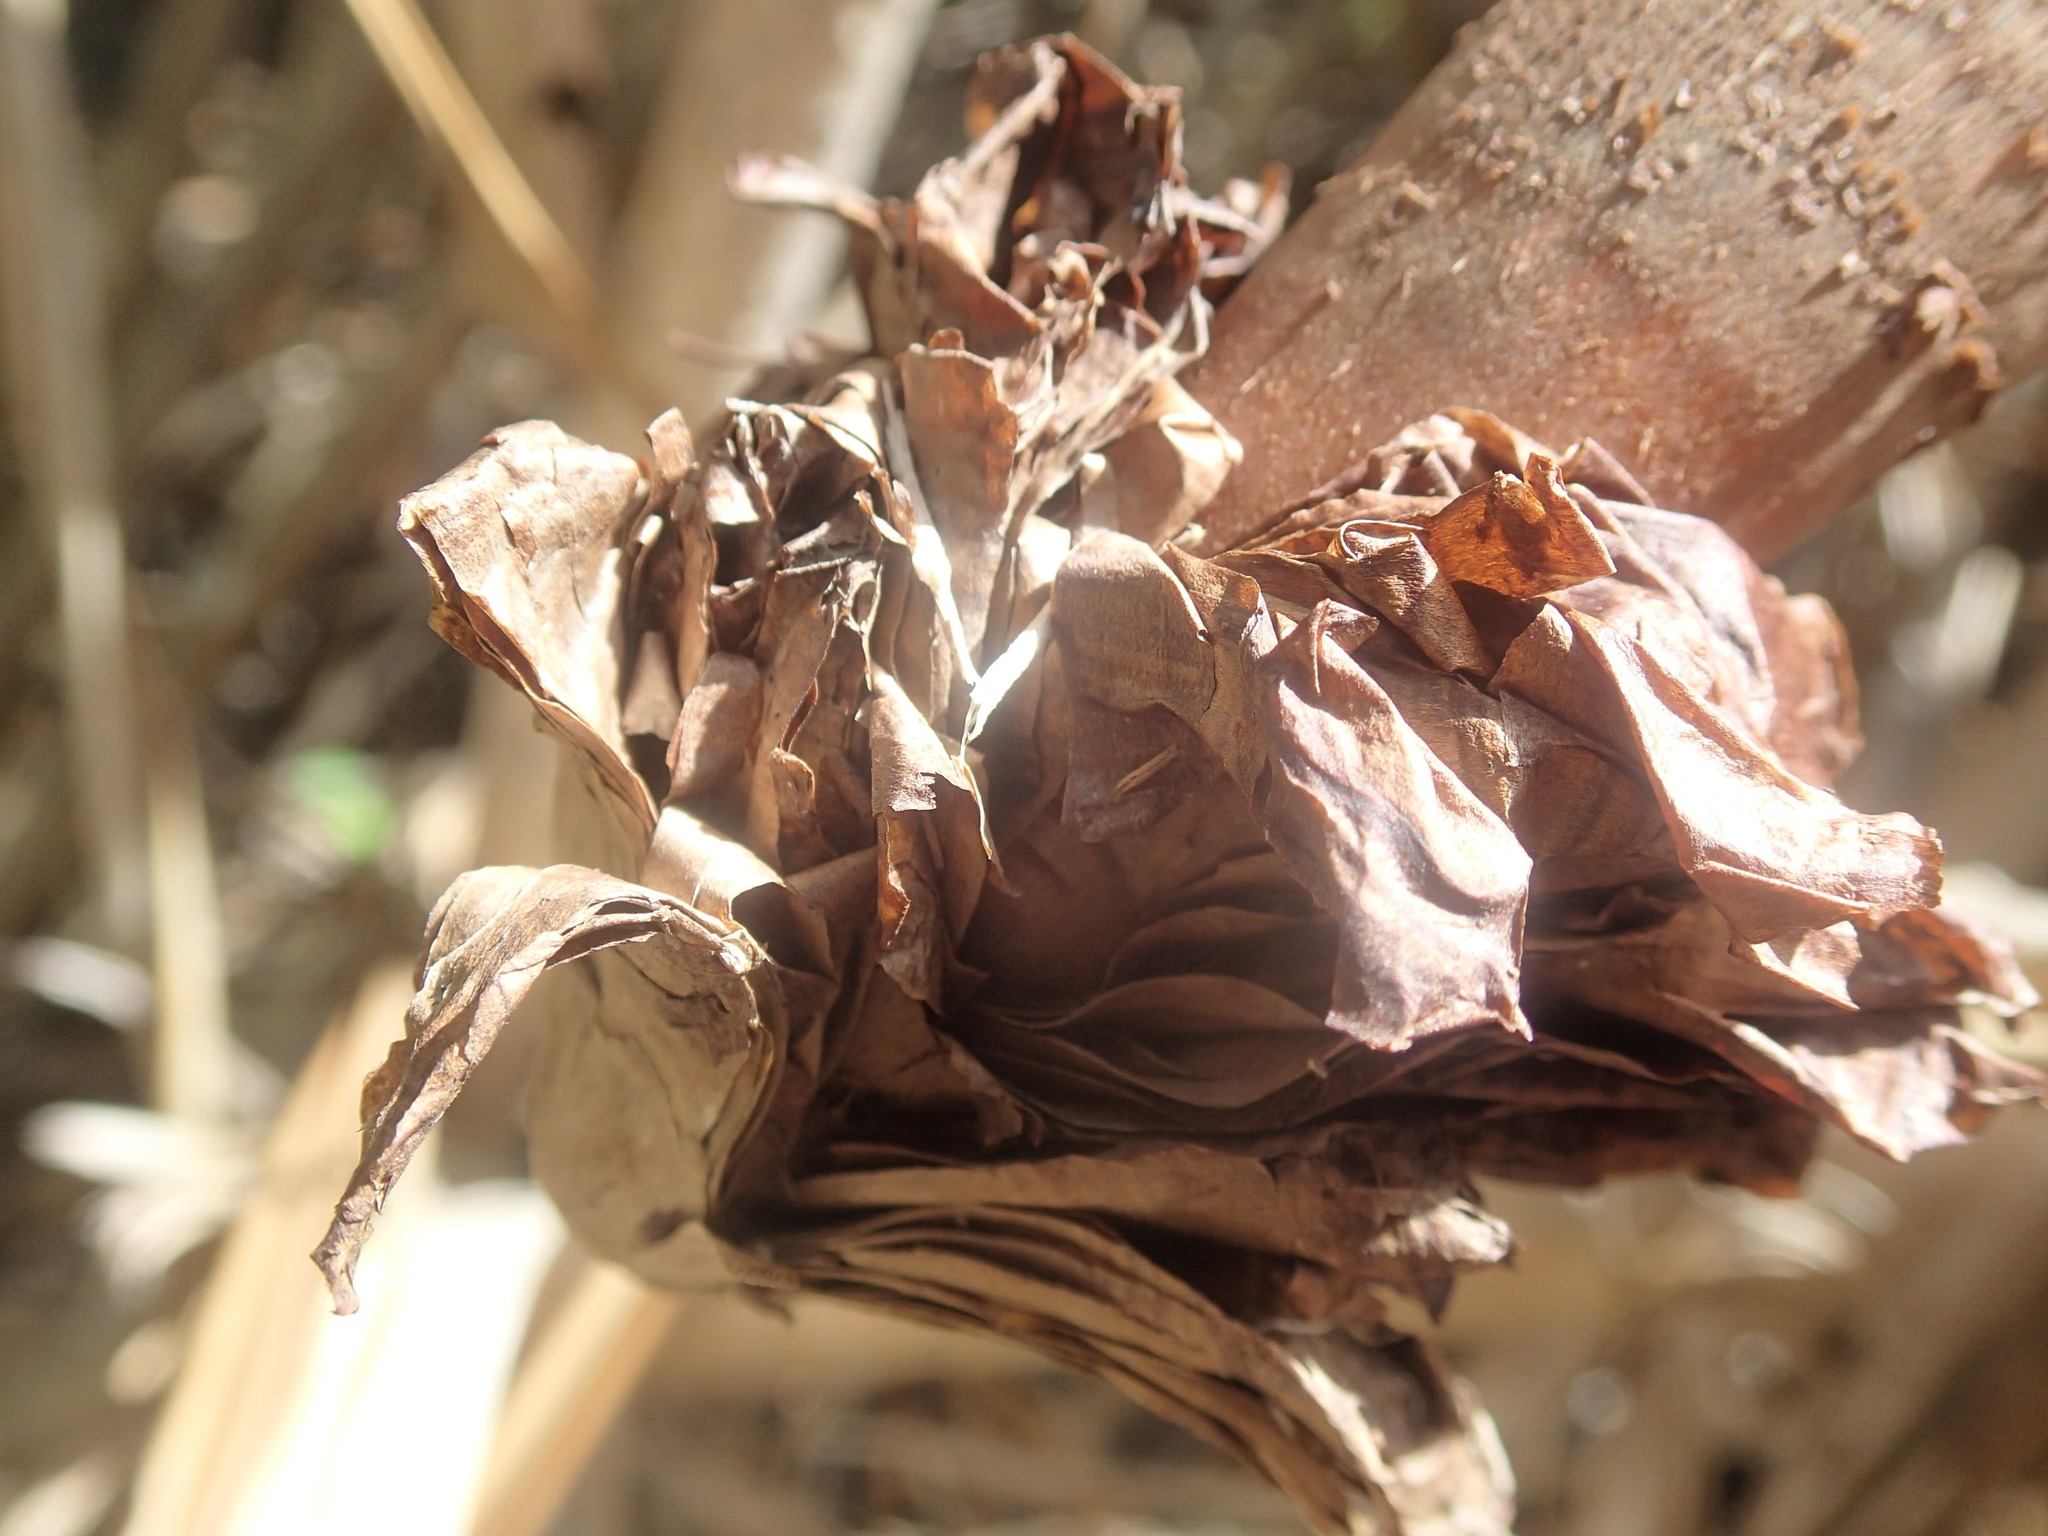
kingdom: Plantae
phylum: Tracheophyta
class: Liliopsida
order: Pandanales
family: Pandanaceae
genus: Pandanus
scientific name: Pandanus balfourii
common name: Balfour’s pandanus
